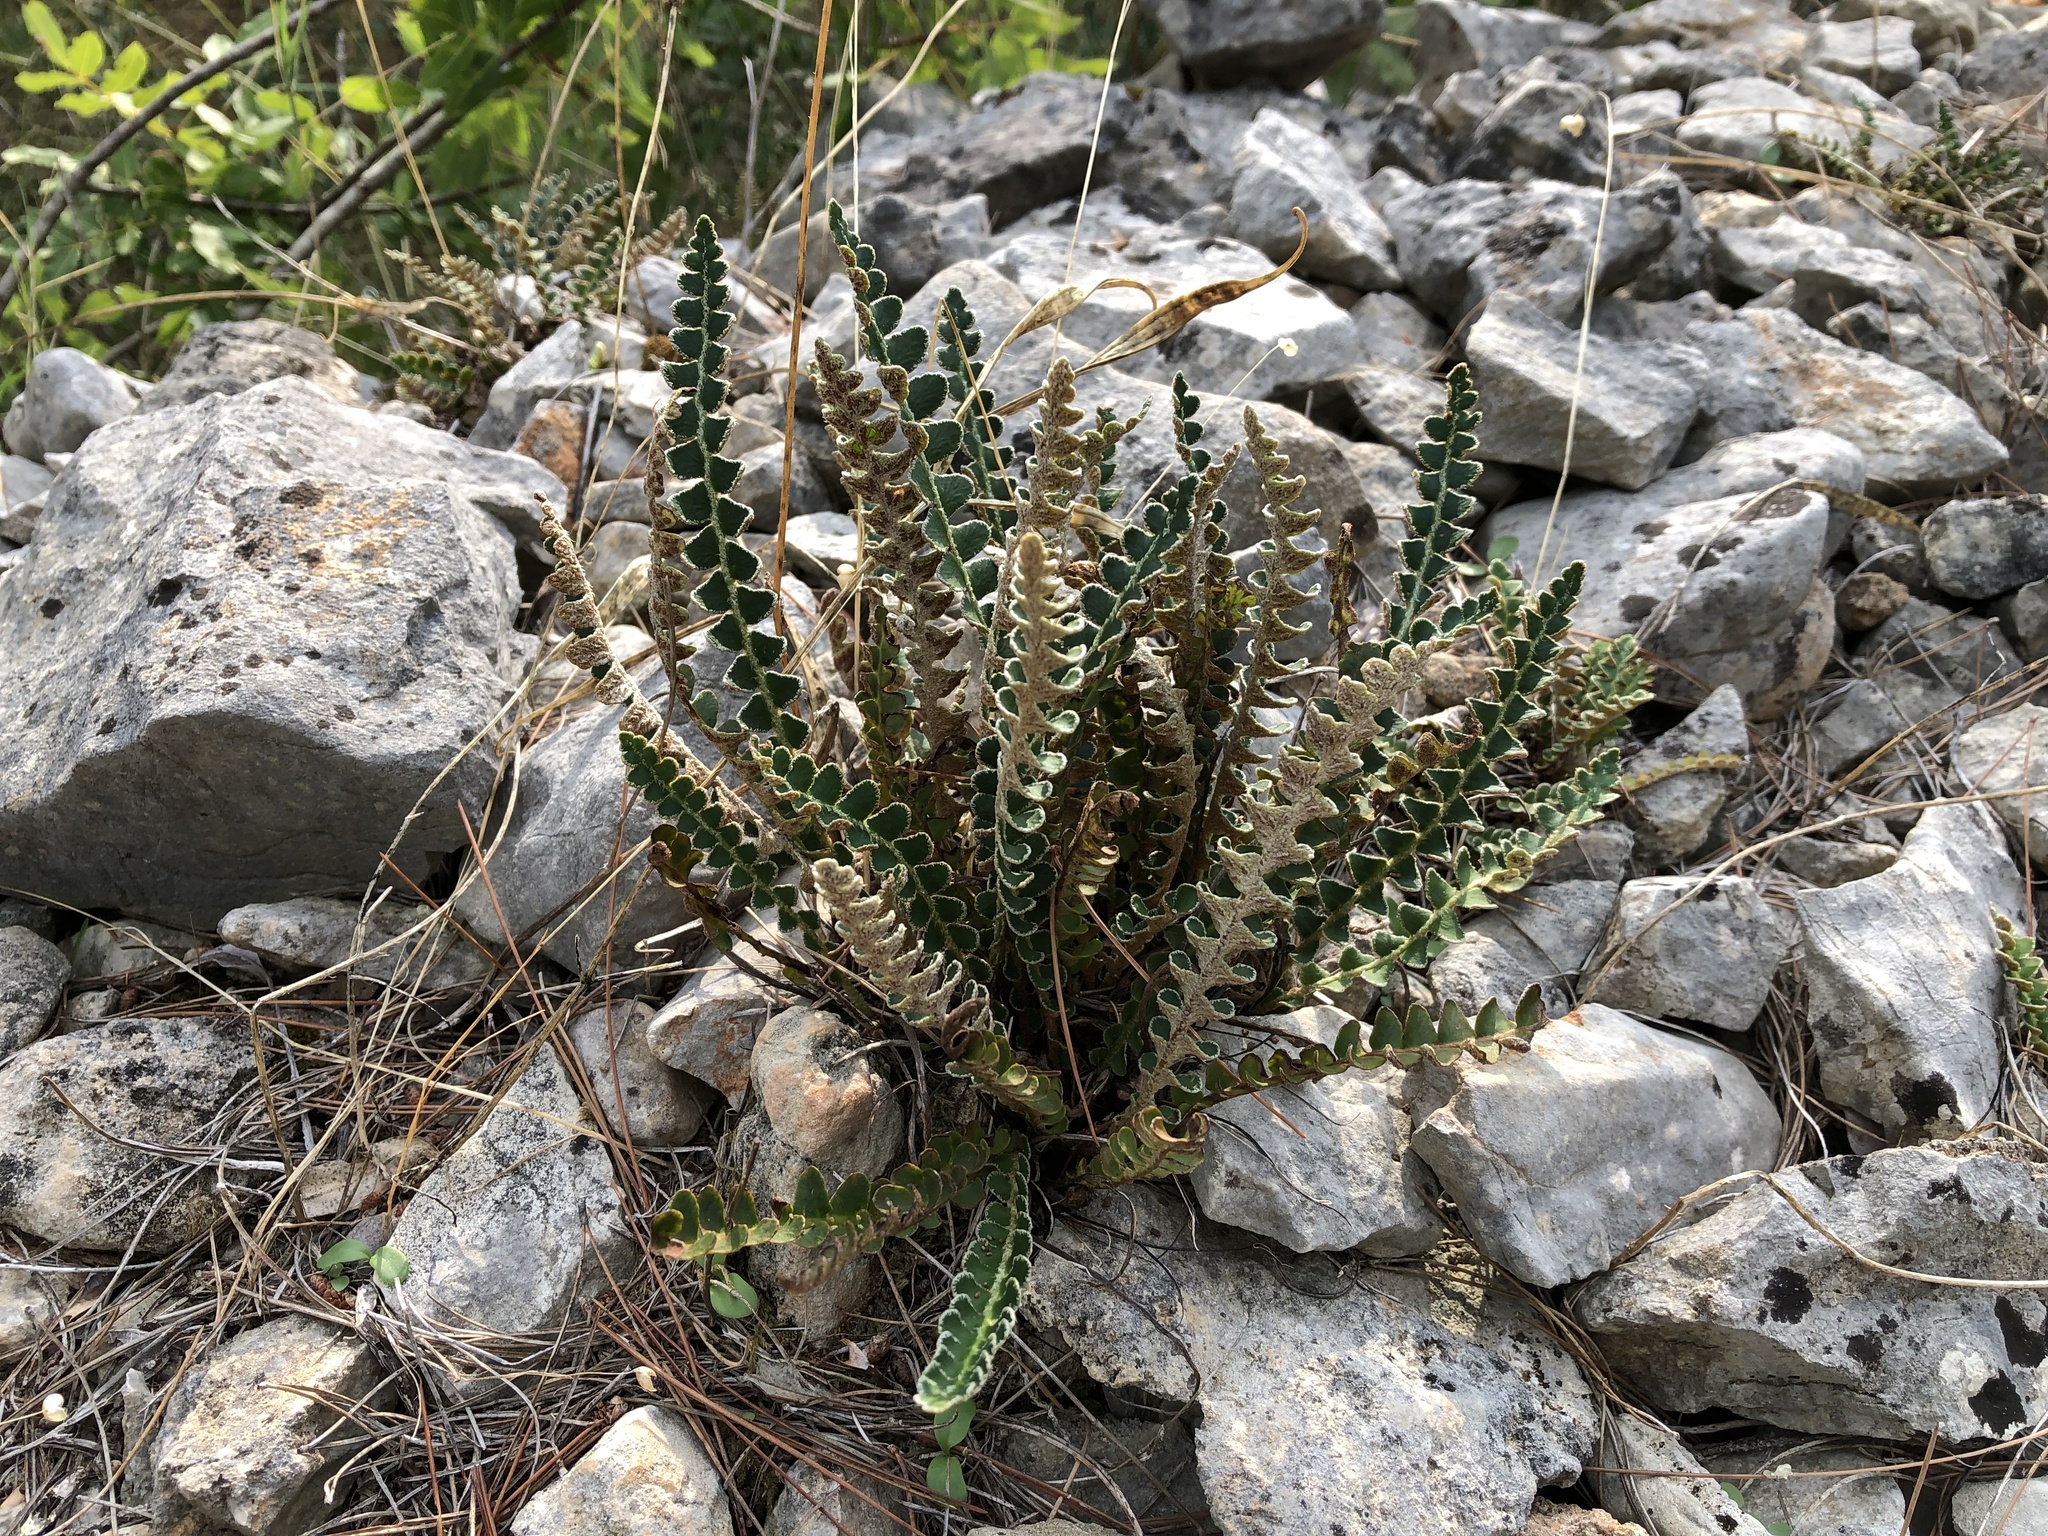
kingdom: Plantae
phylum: Tracheophyta
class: Polypodiopsida
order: Polypodiales
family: Aspleniaceae
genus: Asplenium
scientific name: Asplenium ceterach
